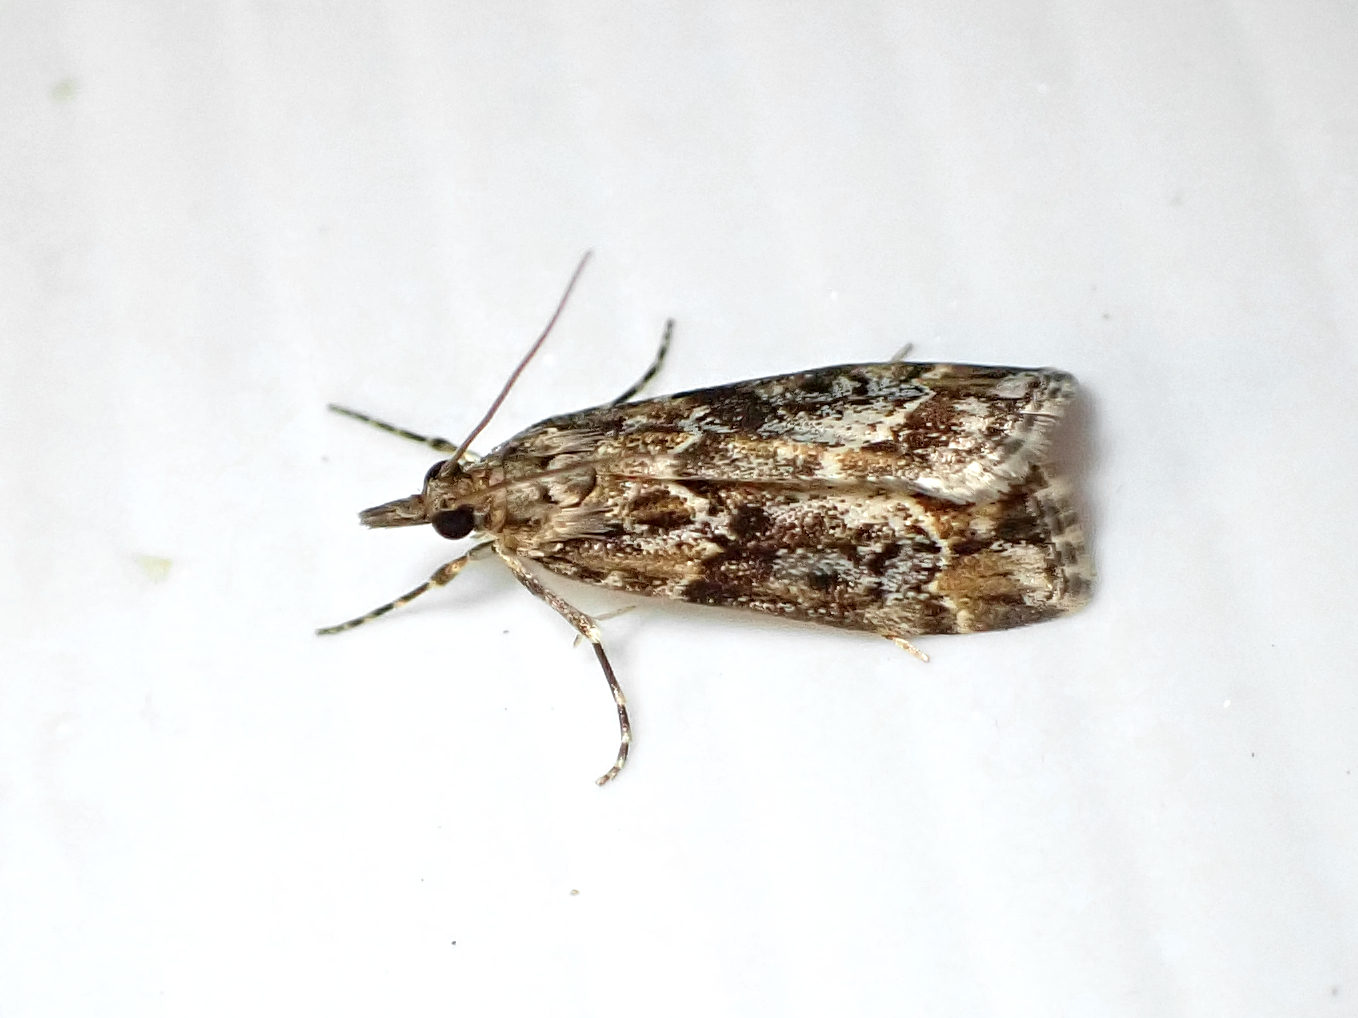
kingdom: Animalia
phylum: Arthropoda
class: Insecta
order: Lepidoptera
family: Crambidae
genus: Eudonia
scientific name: Eudonia legnota
